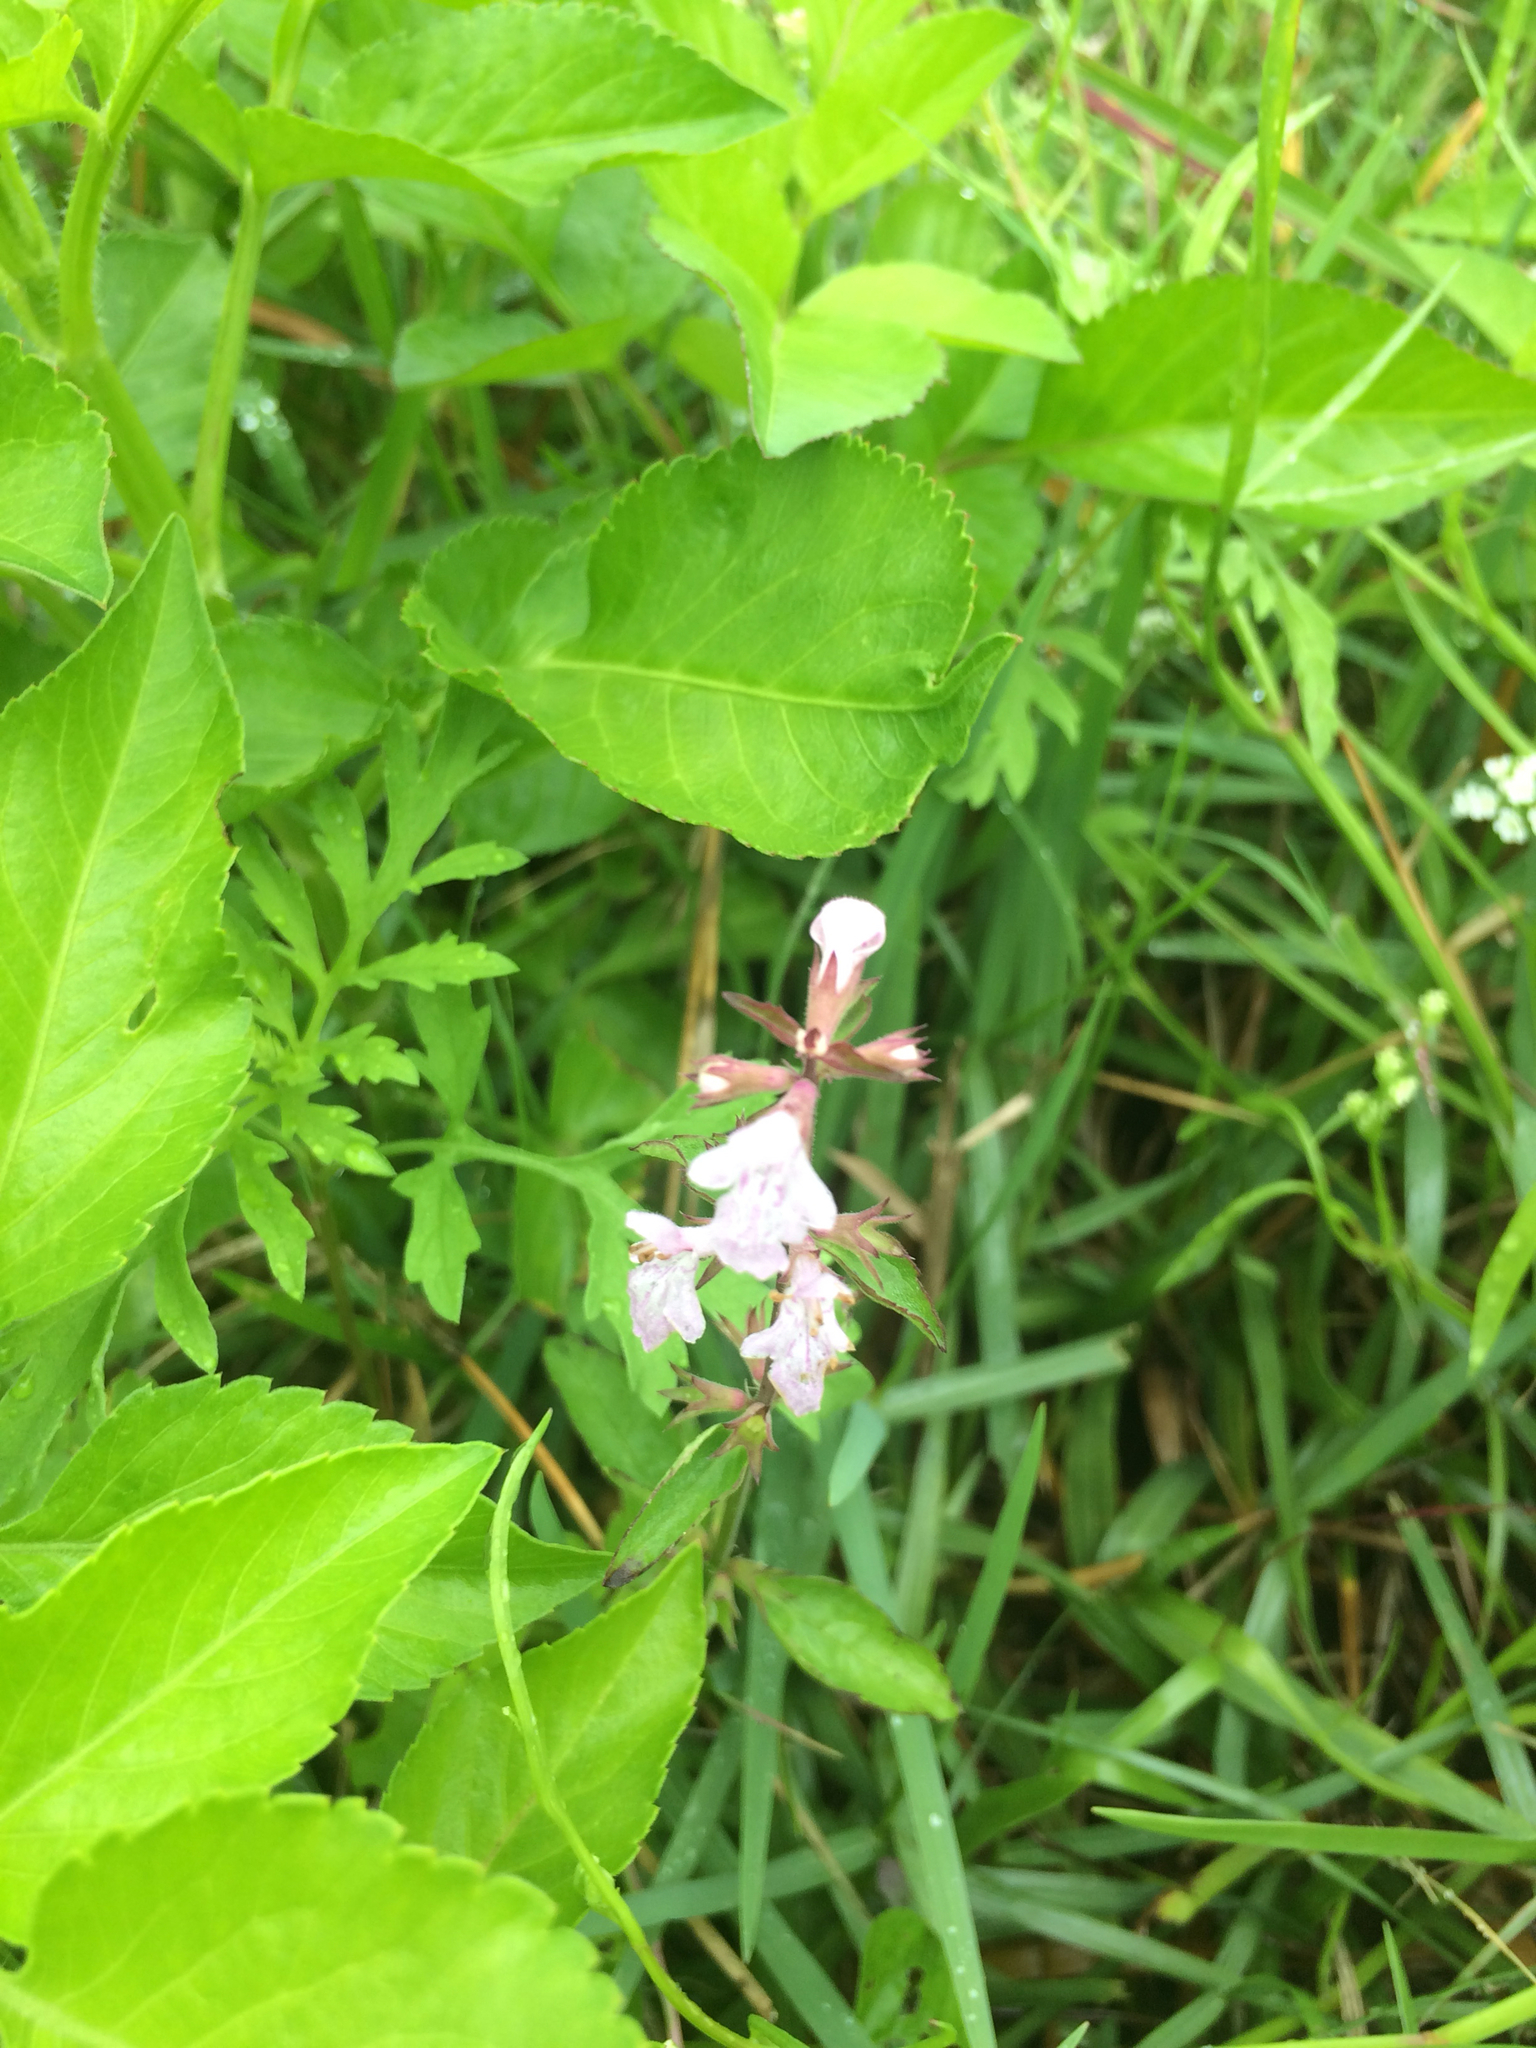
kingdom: Plantae
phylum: Tracheophyta
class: Magnoliopsida
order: Lamiales
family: Lamiaceae
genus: Stachys
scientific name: Stachys floridana
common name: Florida betony
